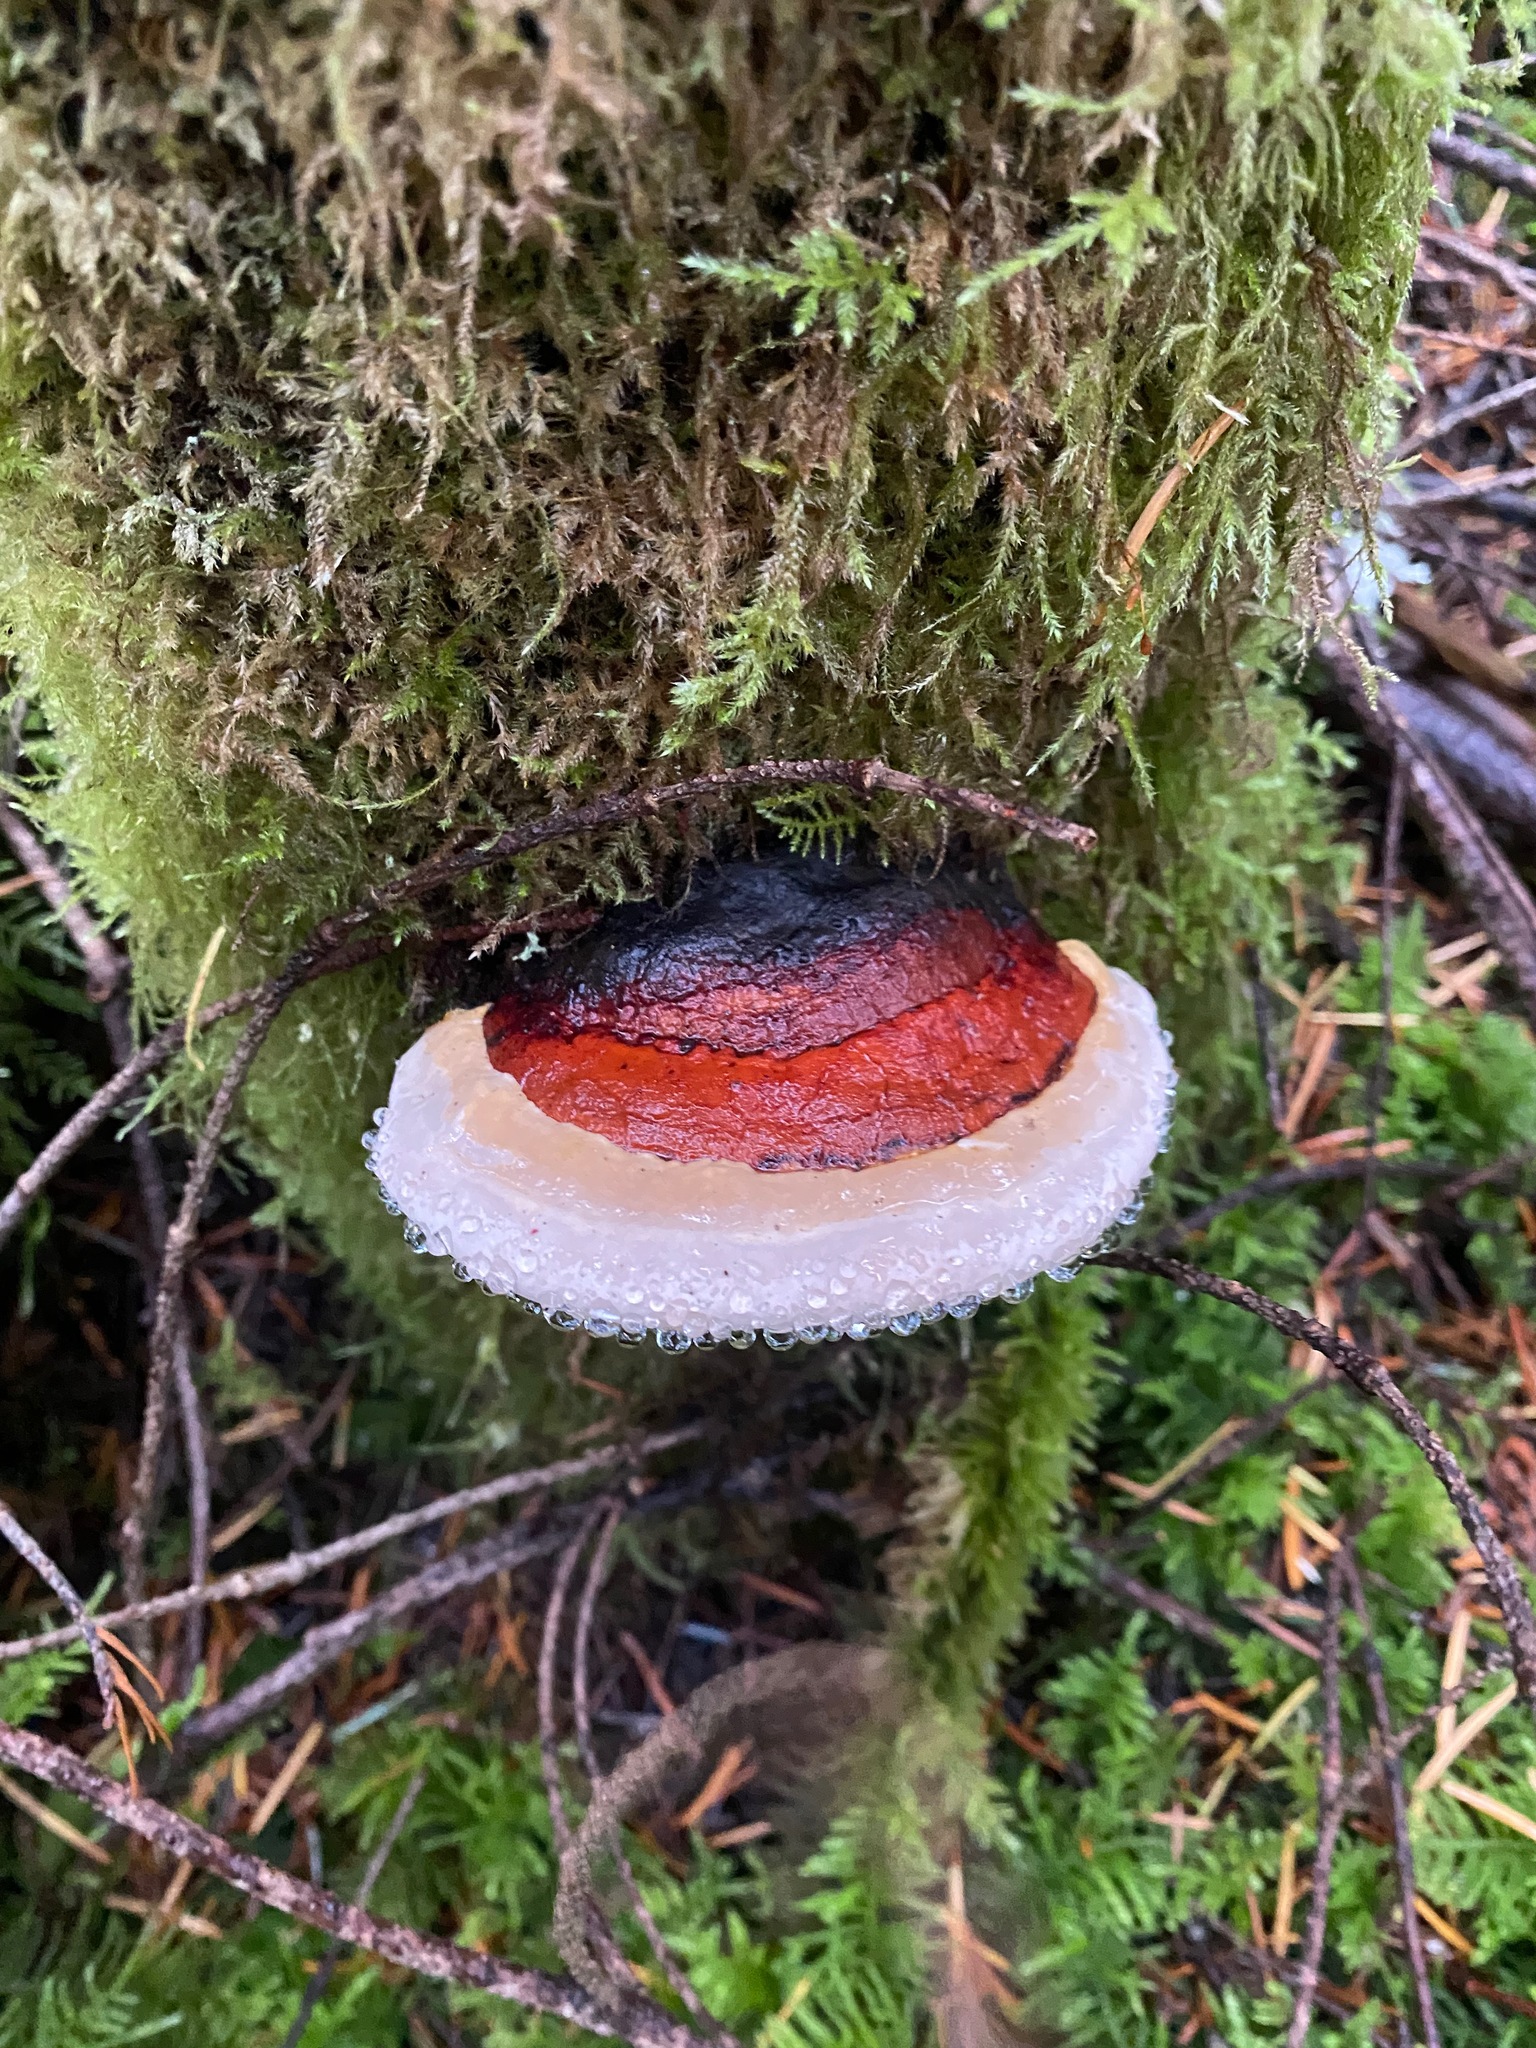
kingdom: Fungi
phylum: Basidiomycota
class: Agaricomycetes
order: Polyporales
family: Fomitopsidaceae
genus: Fomitopsis
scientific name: Fomitopsis mounceae
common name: Northern red belt
